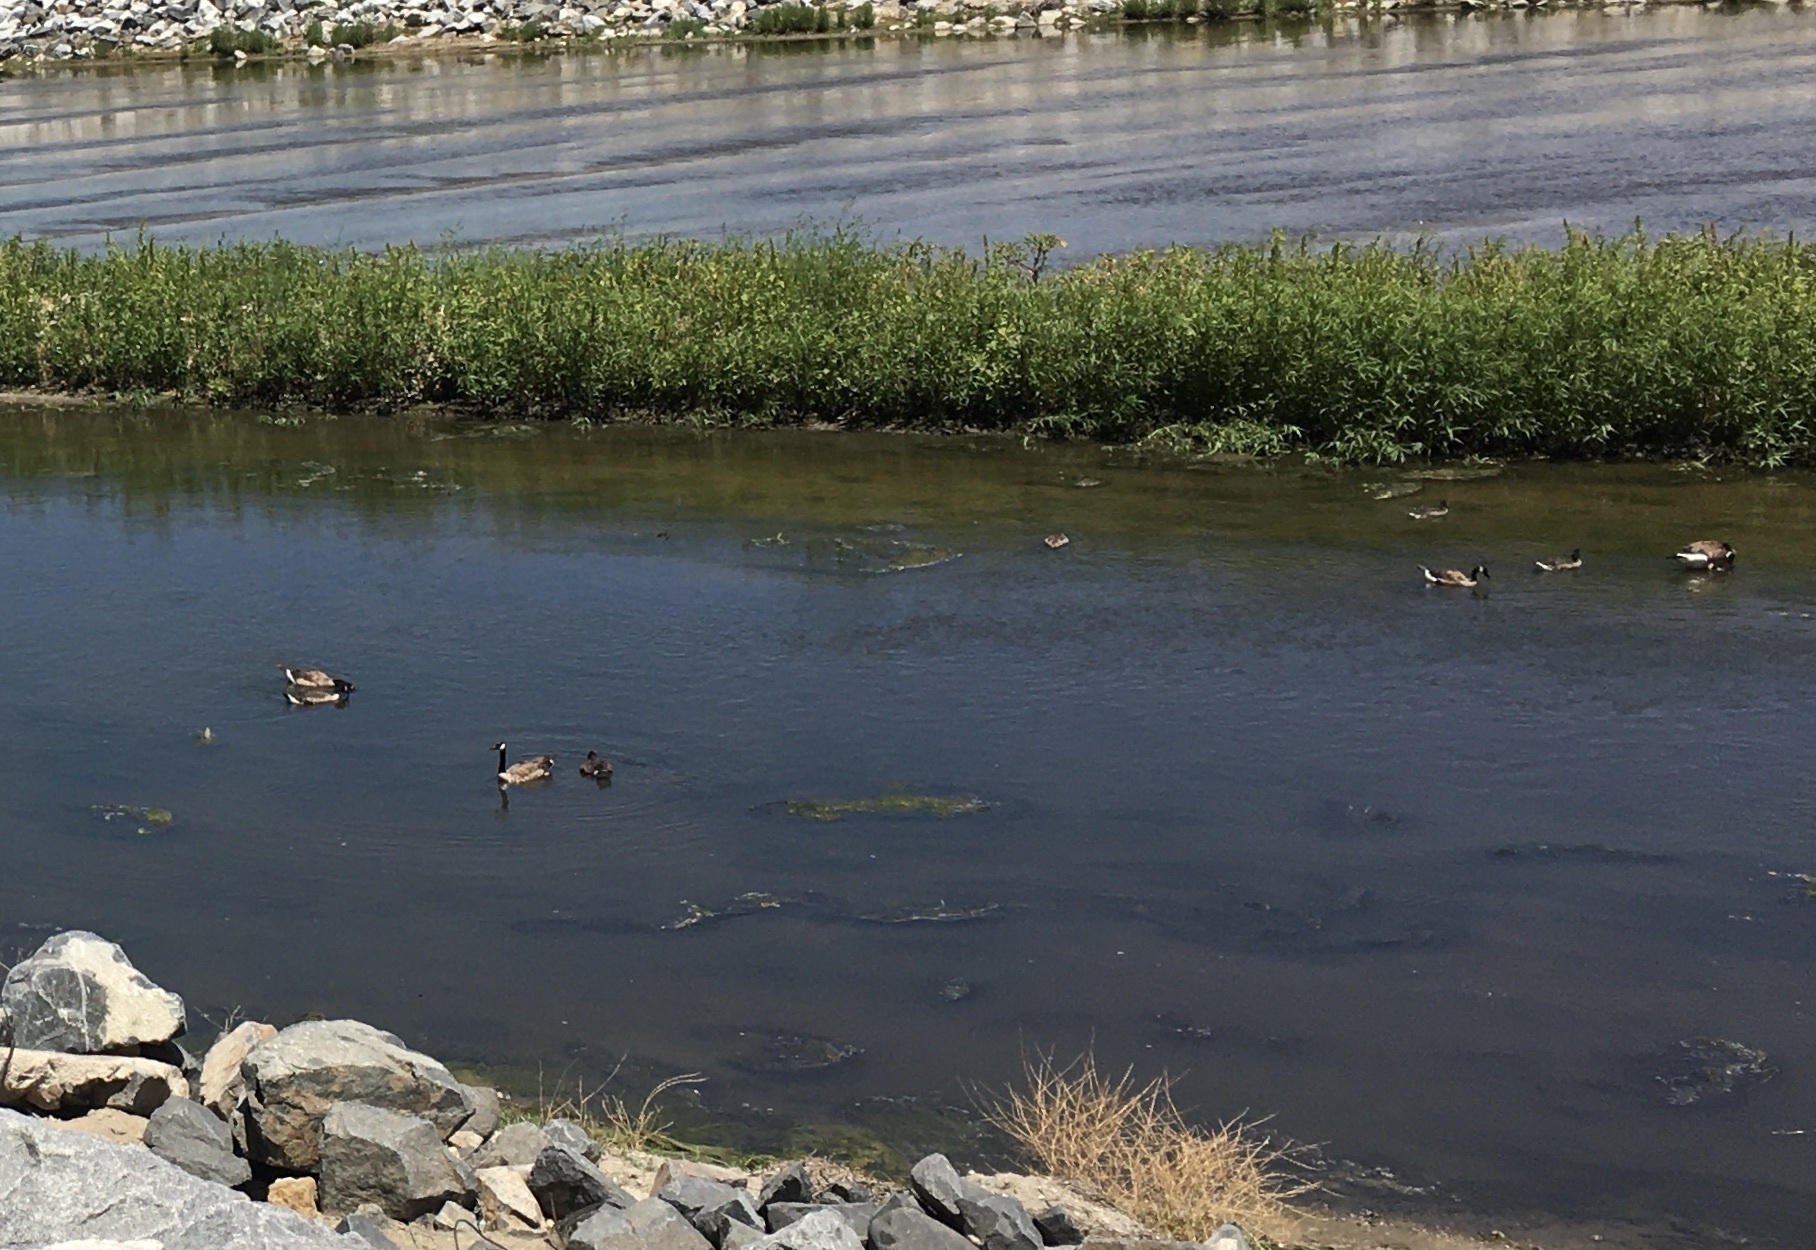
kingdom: Animalia
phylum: Chordata
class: Aves
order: Anseriformes
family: Anatidae
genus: Branta
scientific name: Branta canadensis
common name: Canada goose
